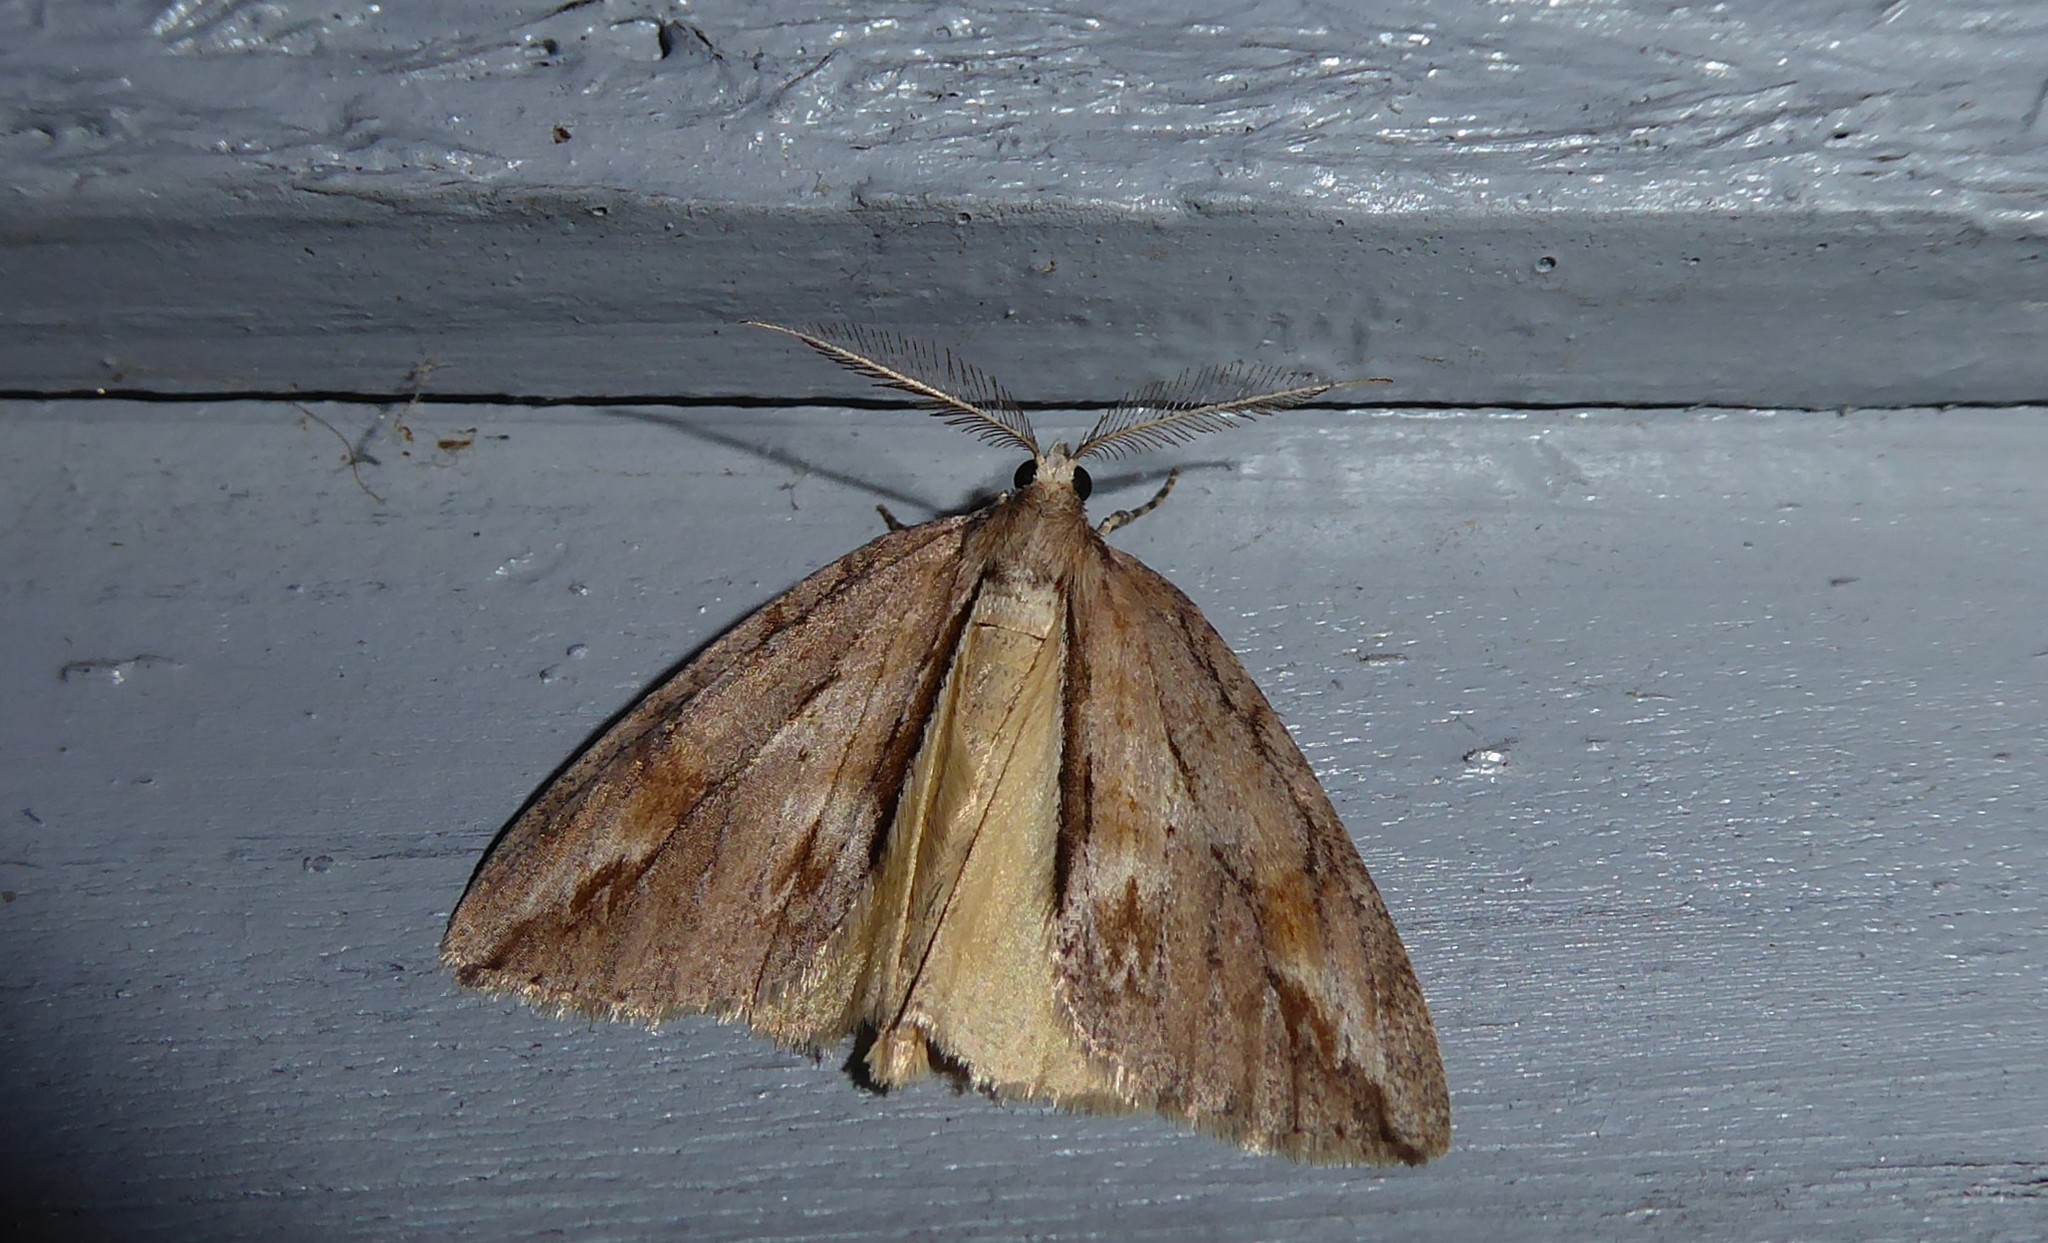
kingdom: Animalia
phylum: Arthropoda
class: Insecta
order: Lepidoptera
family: Geometridae
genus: Pseudocoremia
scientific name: Pseudocoremia lupinata
